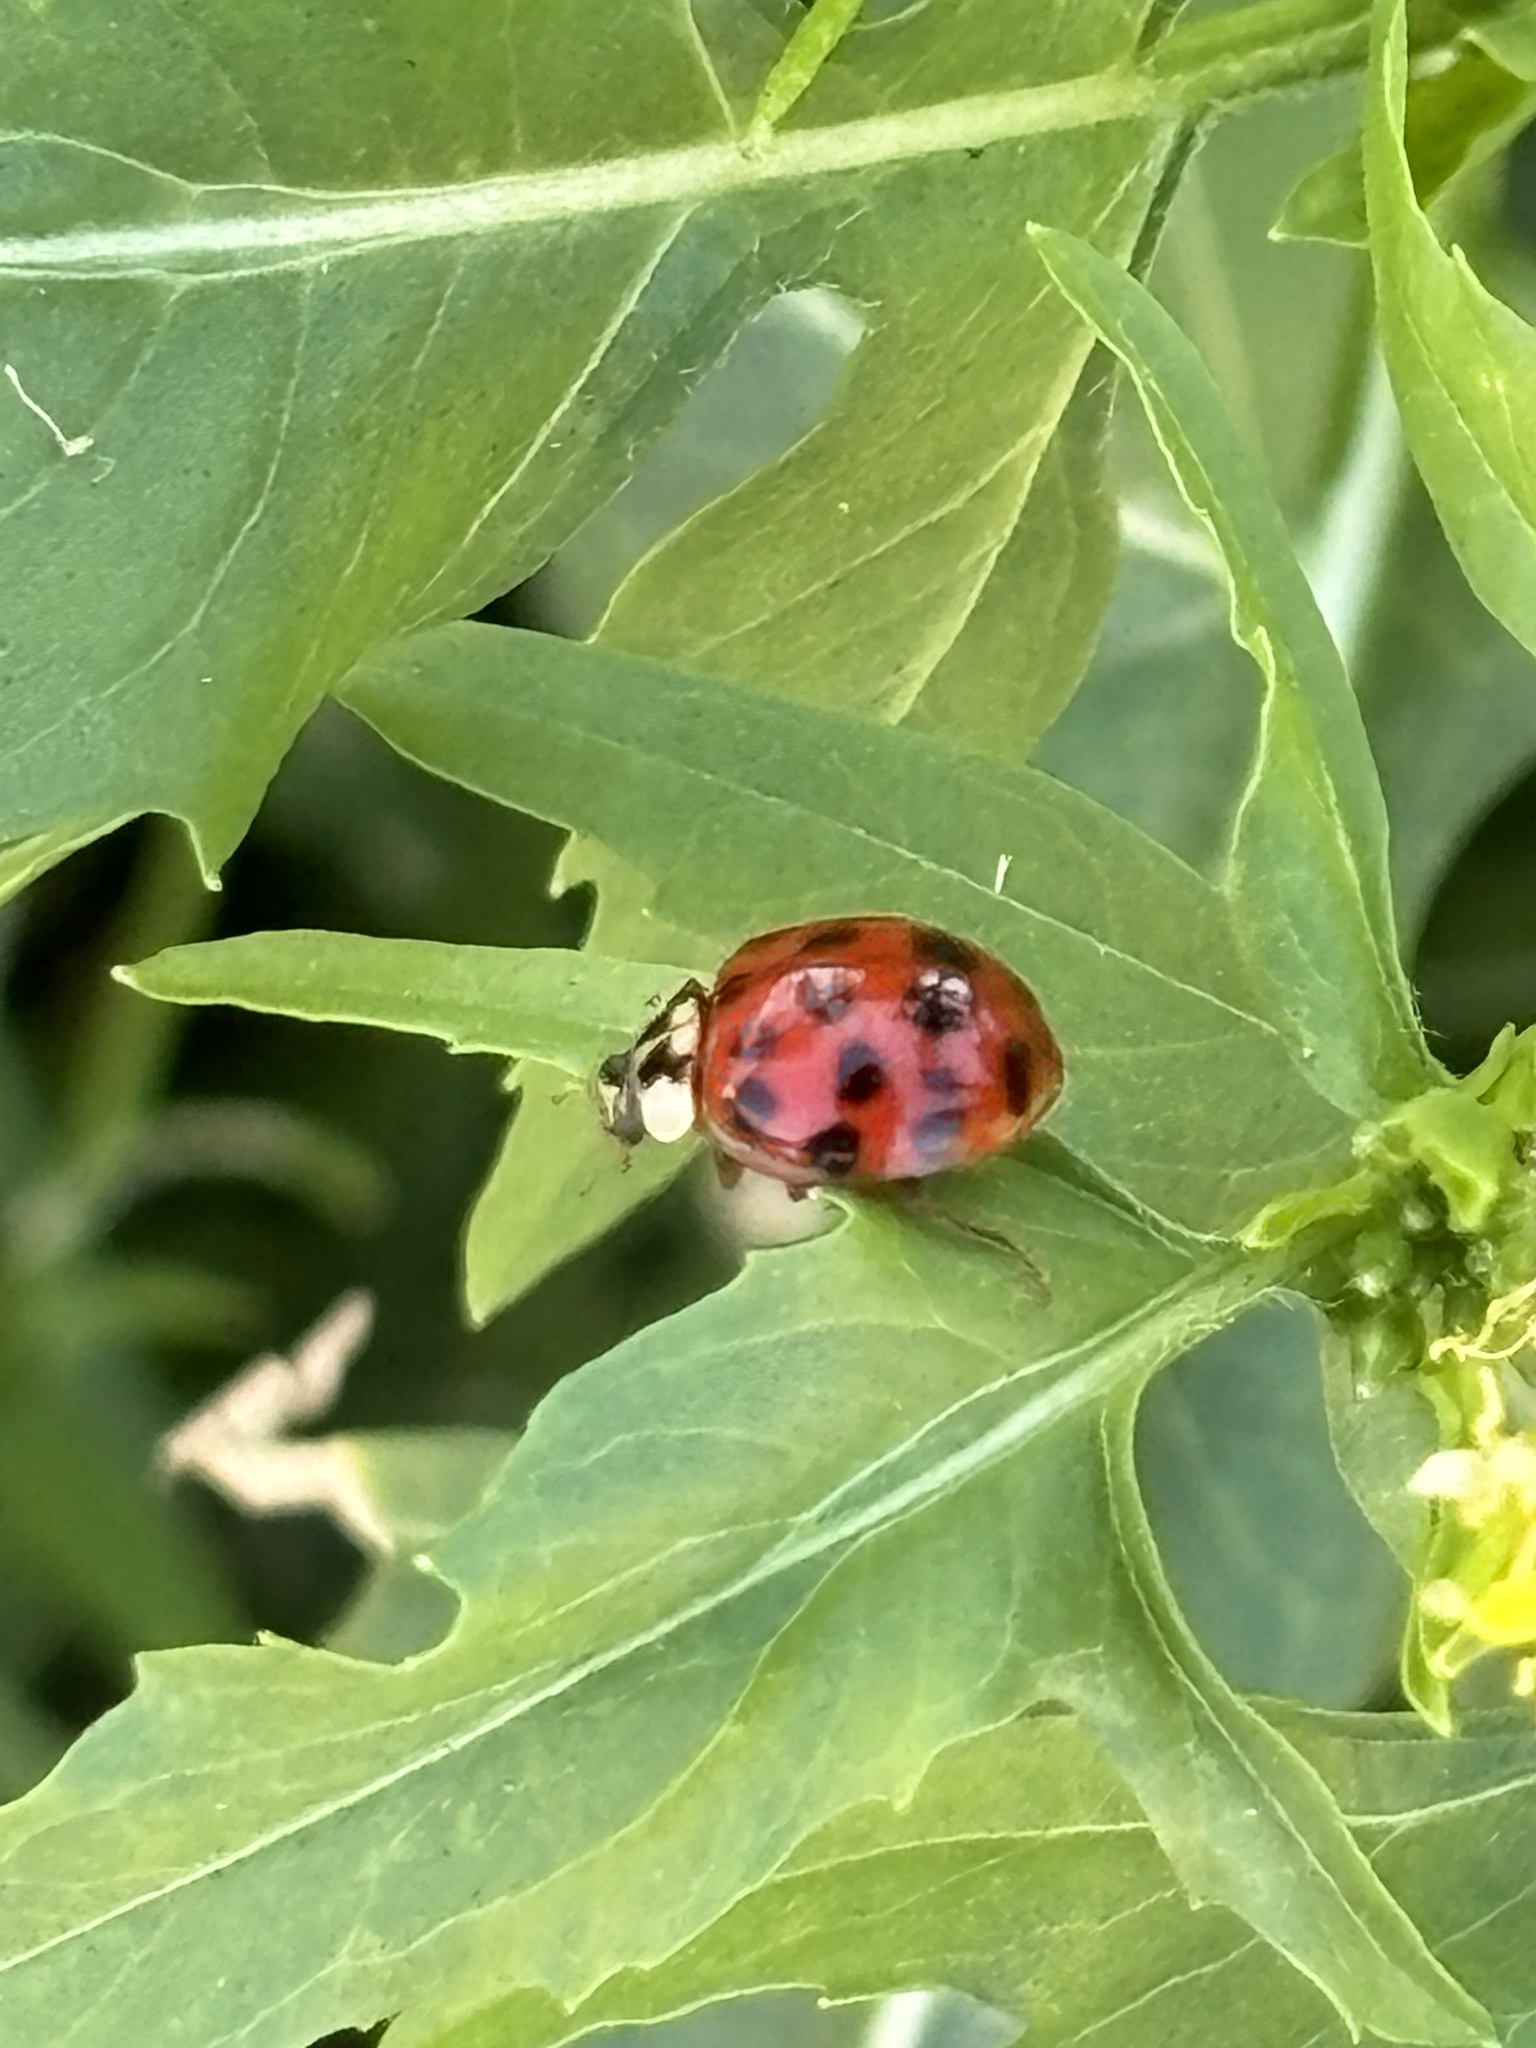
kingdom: Animalia
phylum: Arthropoda
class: Insecta
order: Coleoptera
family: Coccinellidae
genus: Harmonia
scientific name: Harmonia axyridis
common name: Harlequin ladybird
